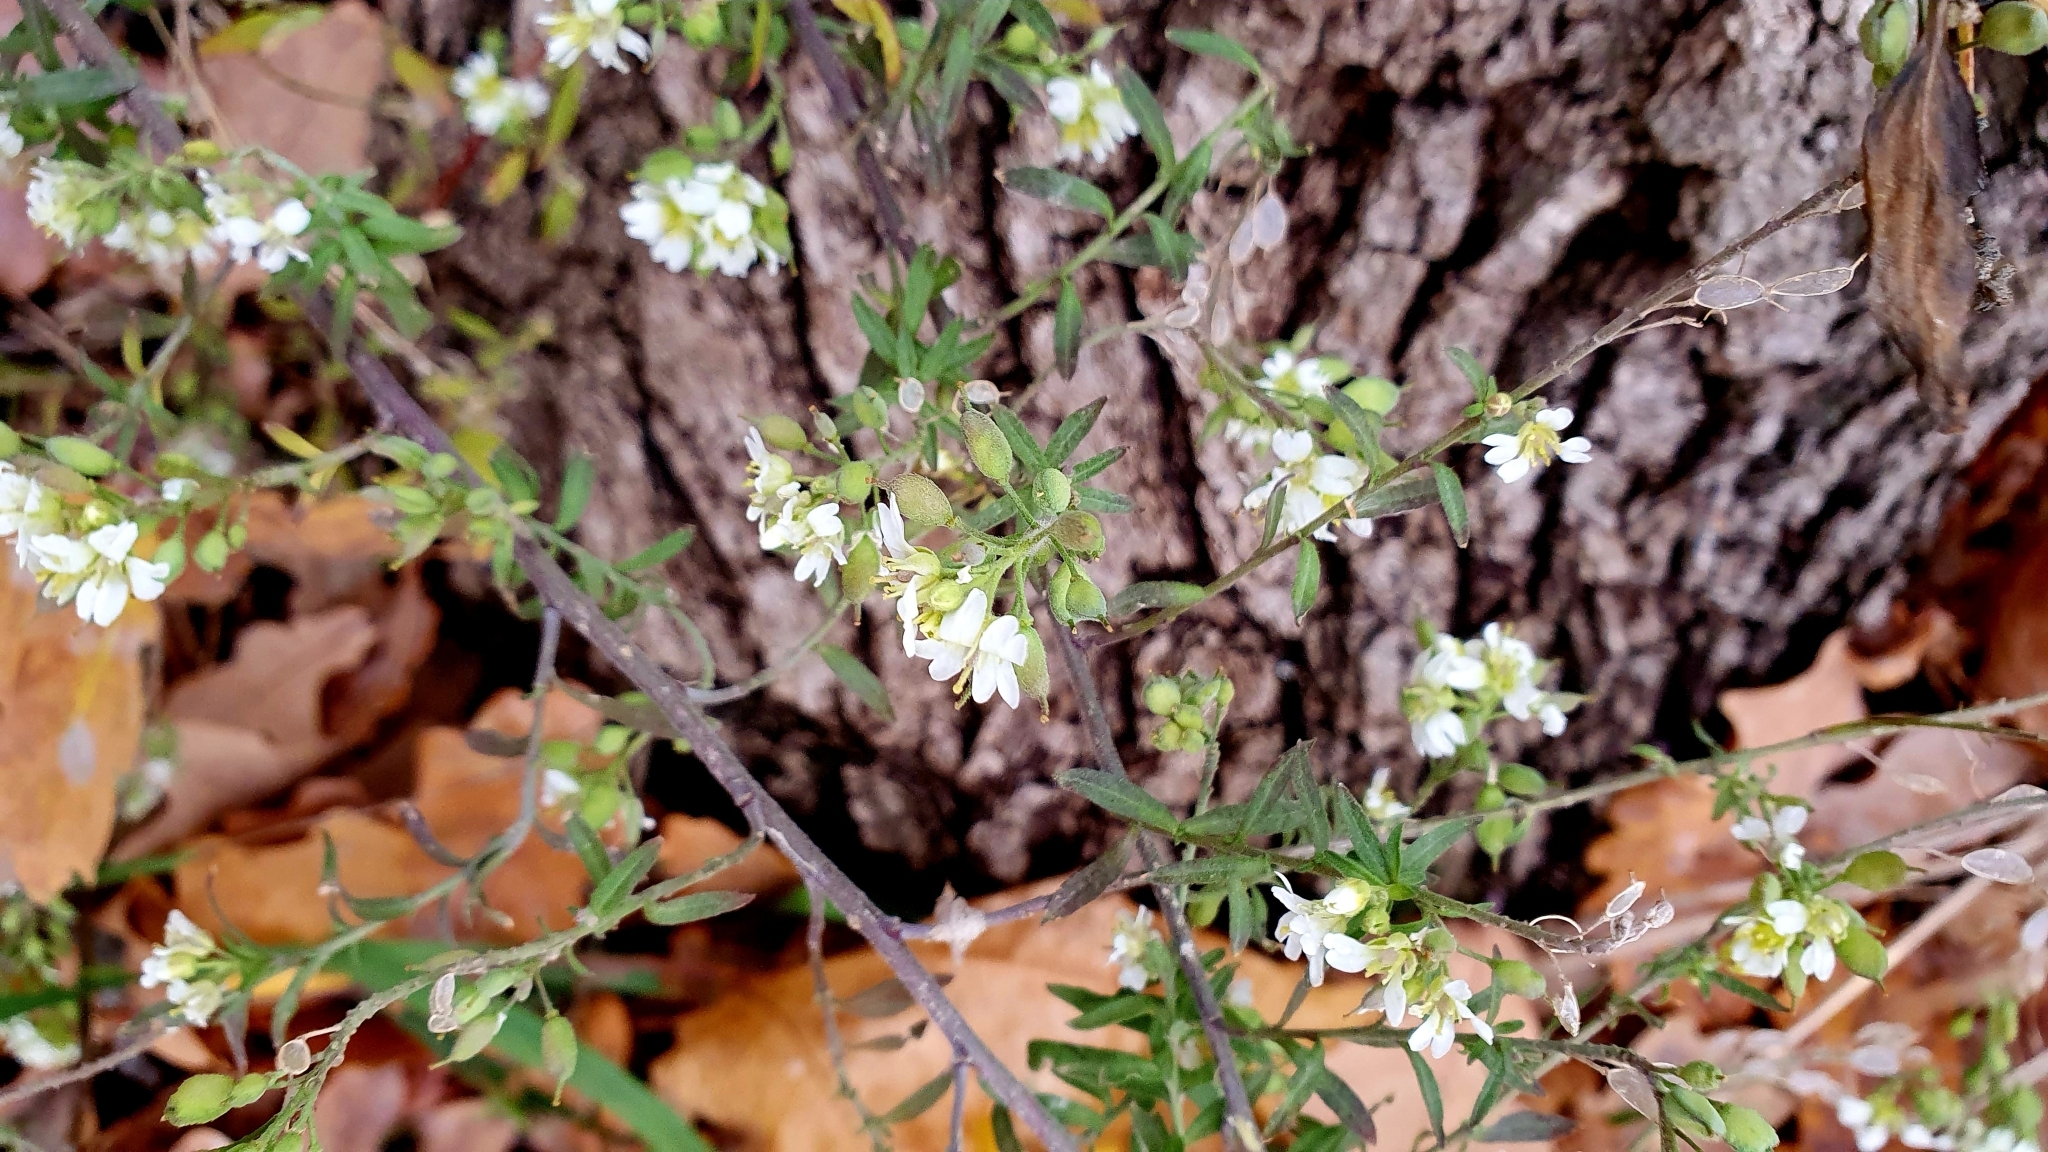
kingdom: Plantae
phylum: Tracheophyta
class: Magnoliopsida
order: Brassicales
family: Brassicaceae
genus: Berteroa
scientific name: Berteroa incana
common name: Hoary alison
